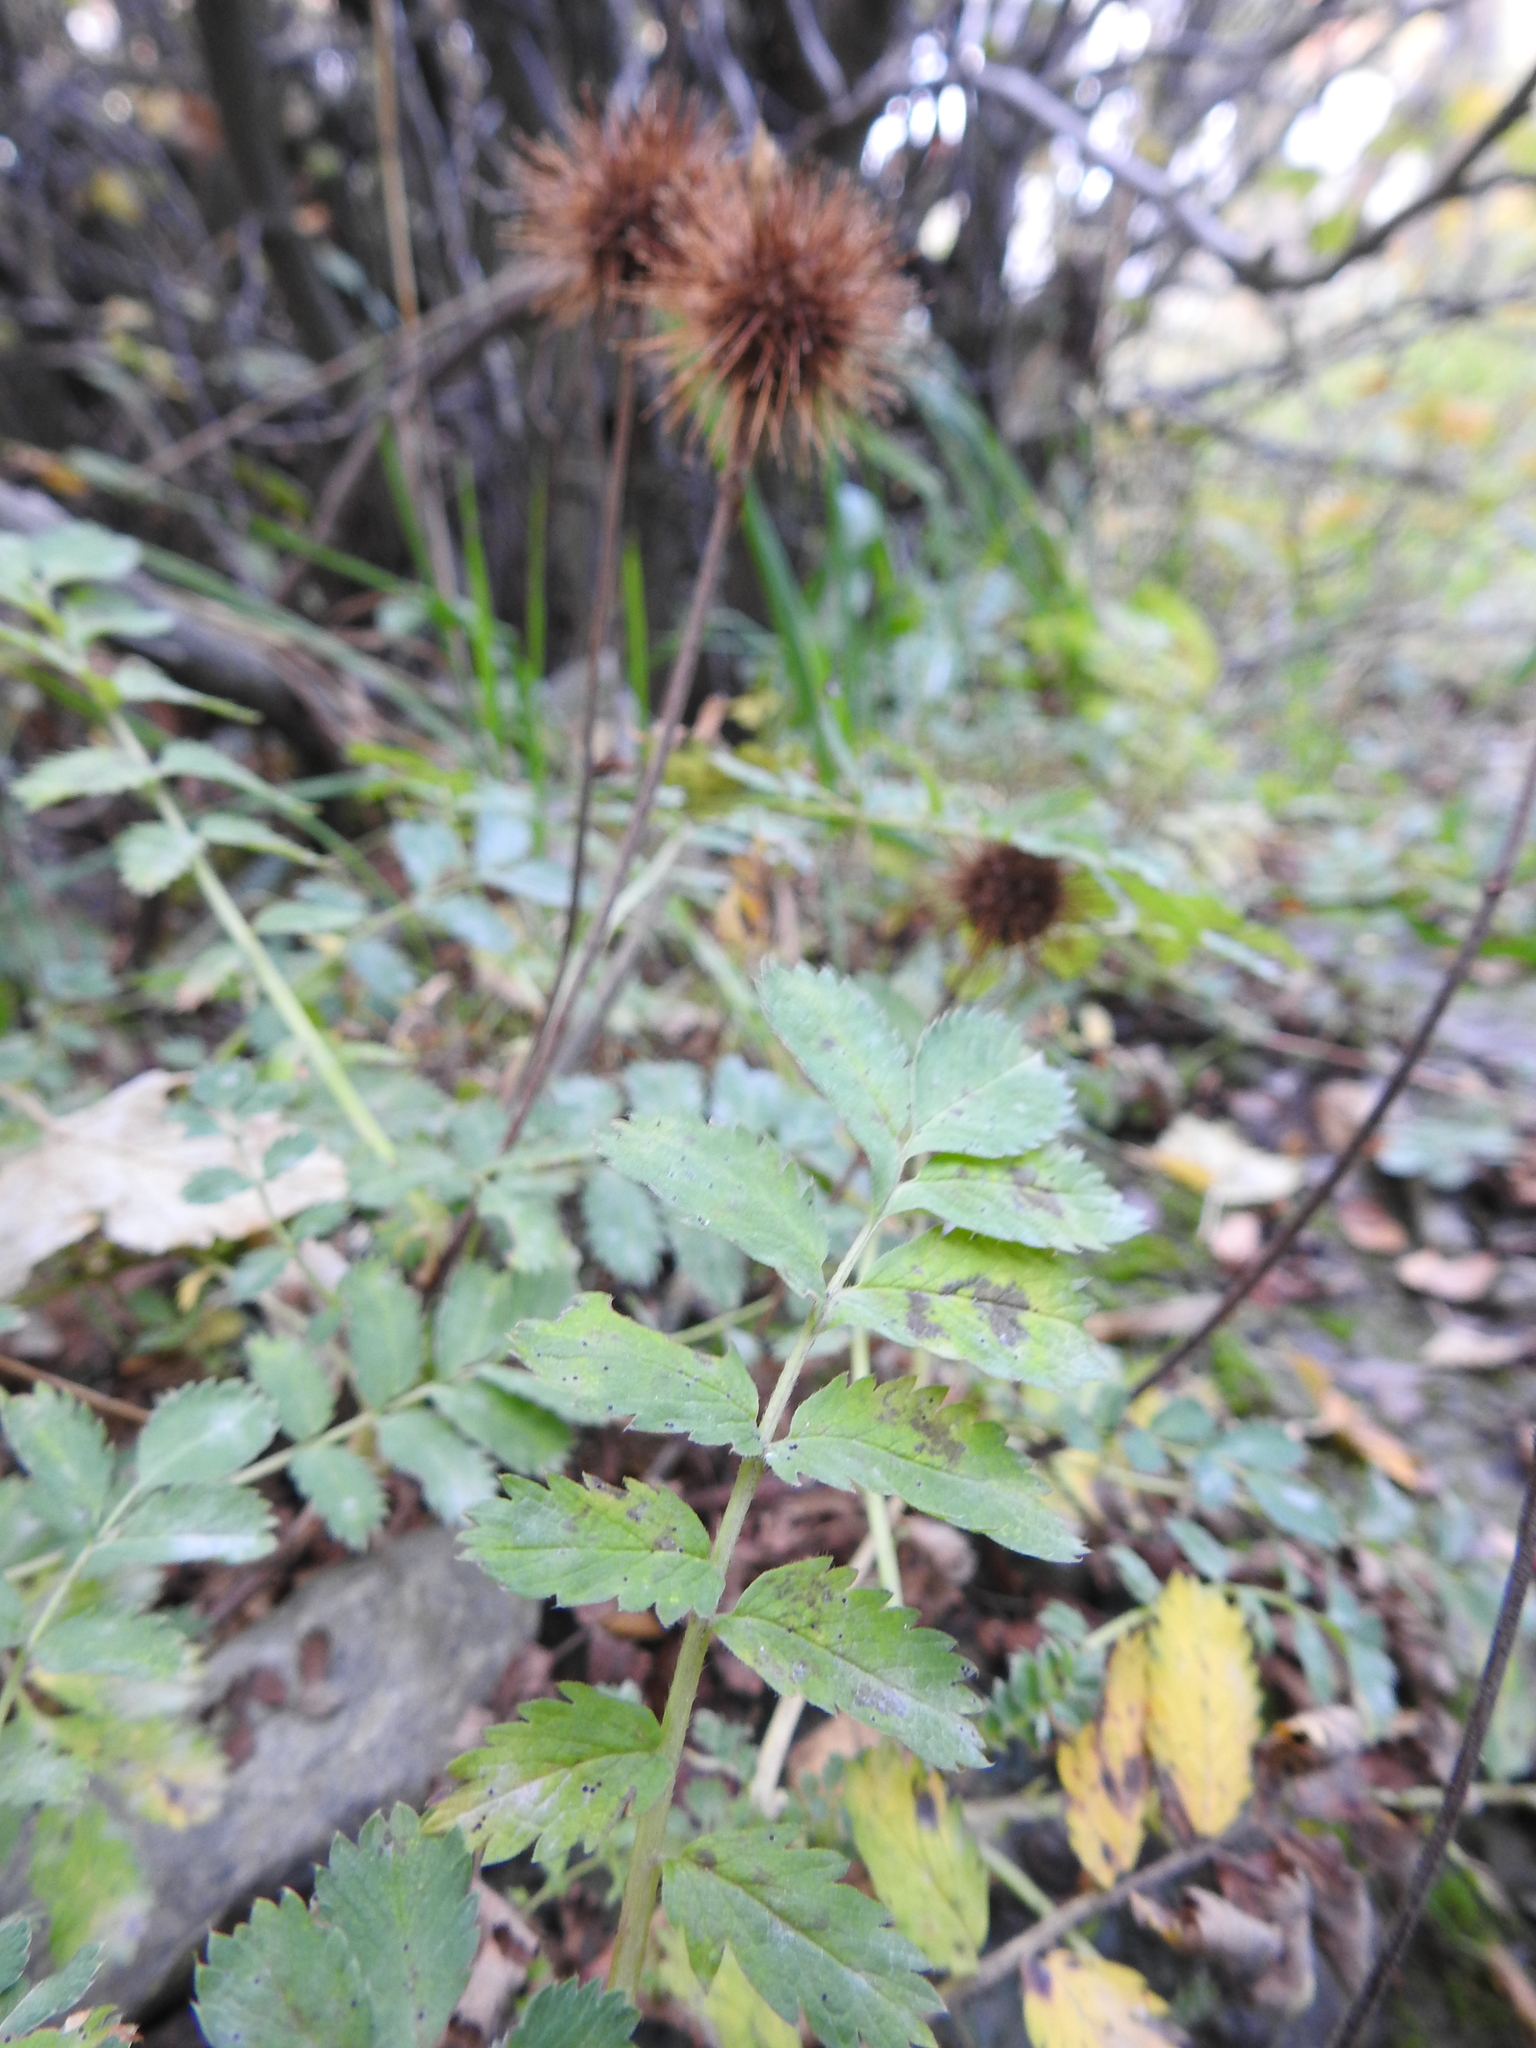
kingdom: Plantae
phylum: Tracheophyta
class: Magnoliopsida
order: Rosales
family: Rosaceae
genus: Acaena
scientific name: Acaena magellanica
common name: New zealand burr
